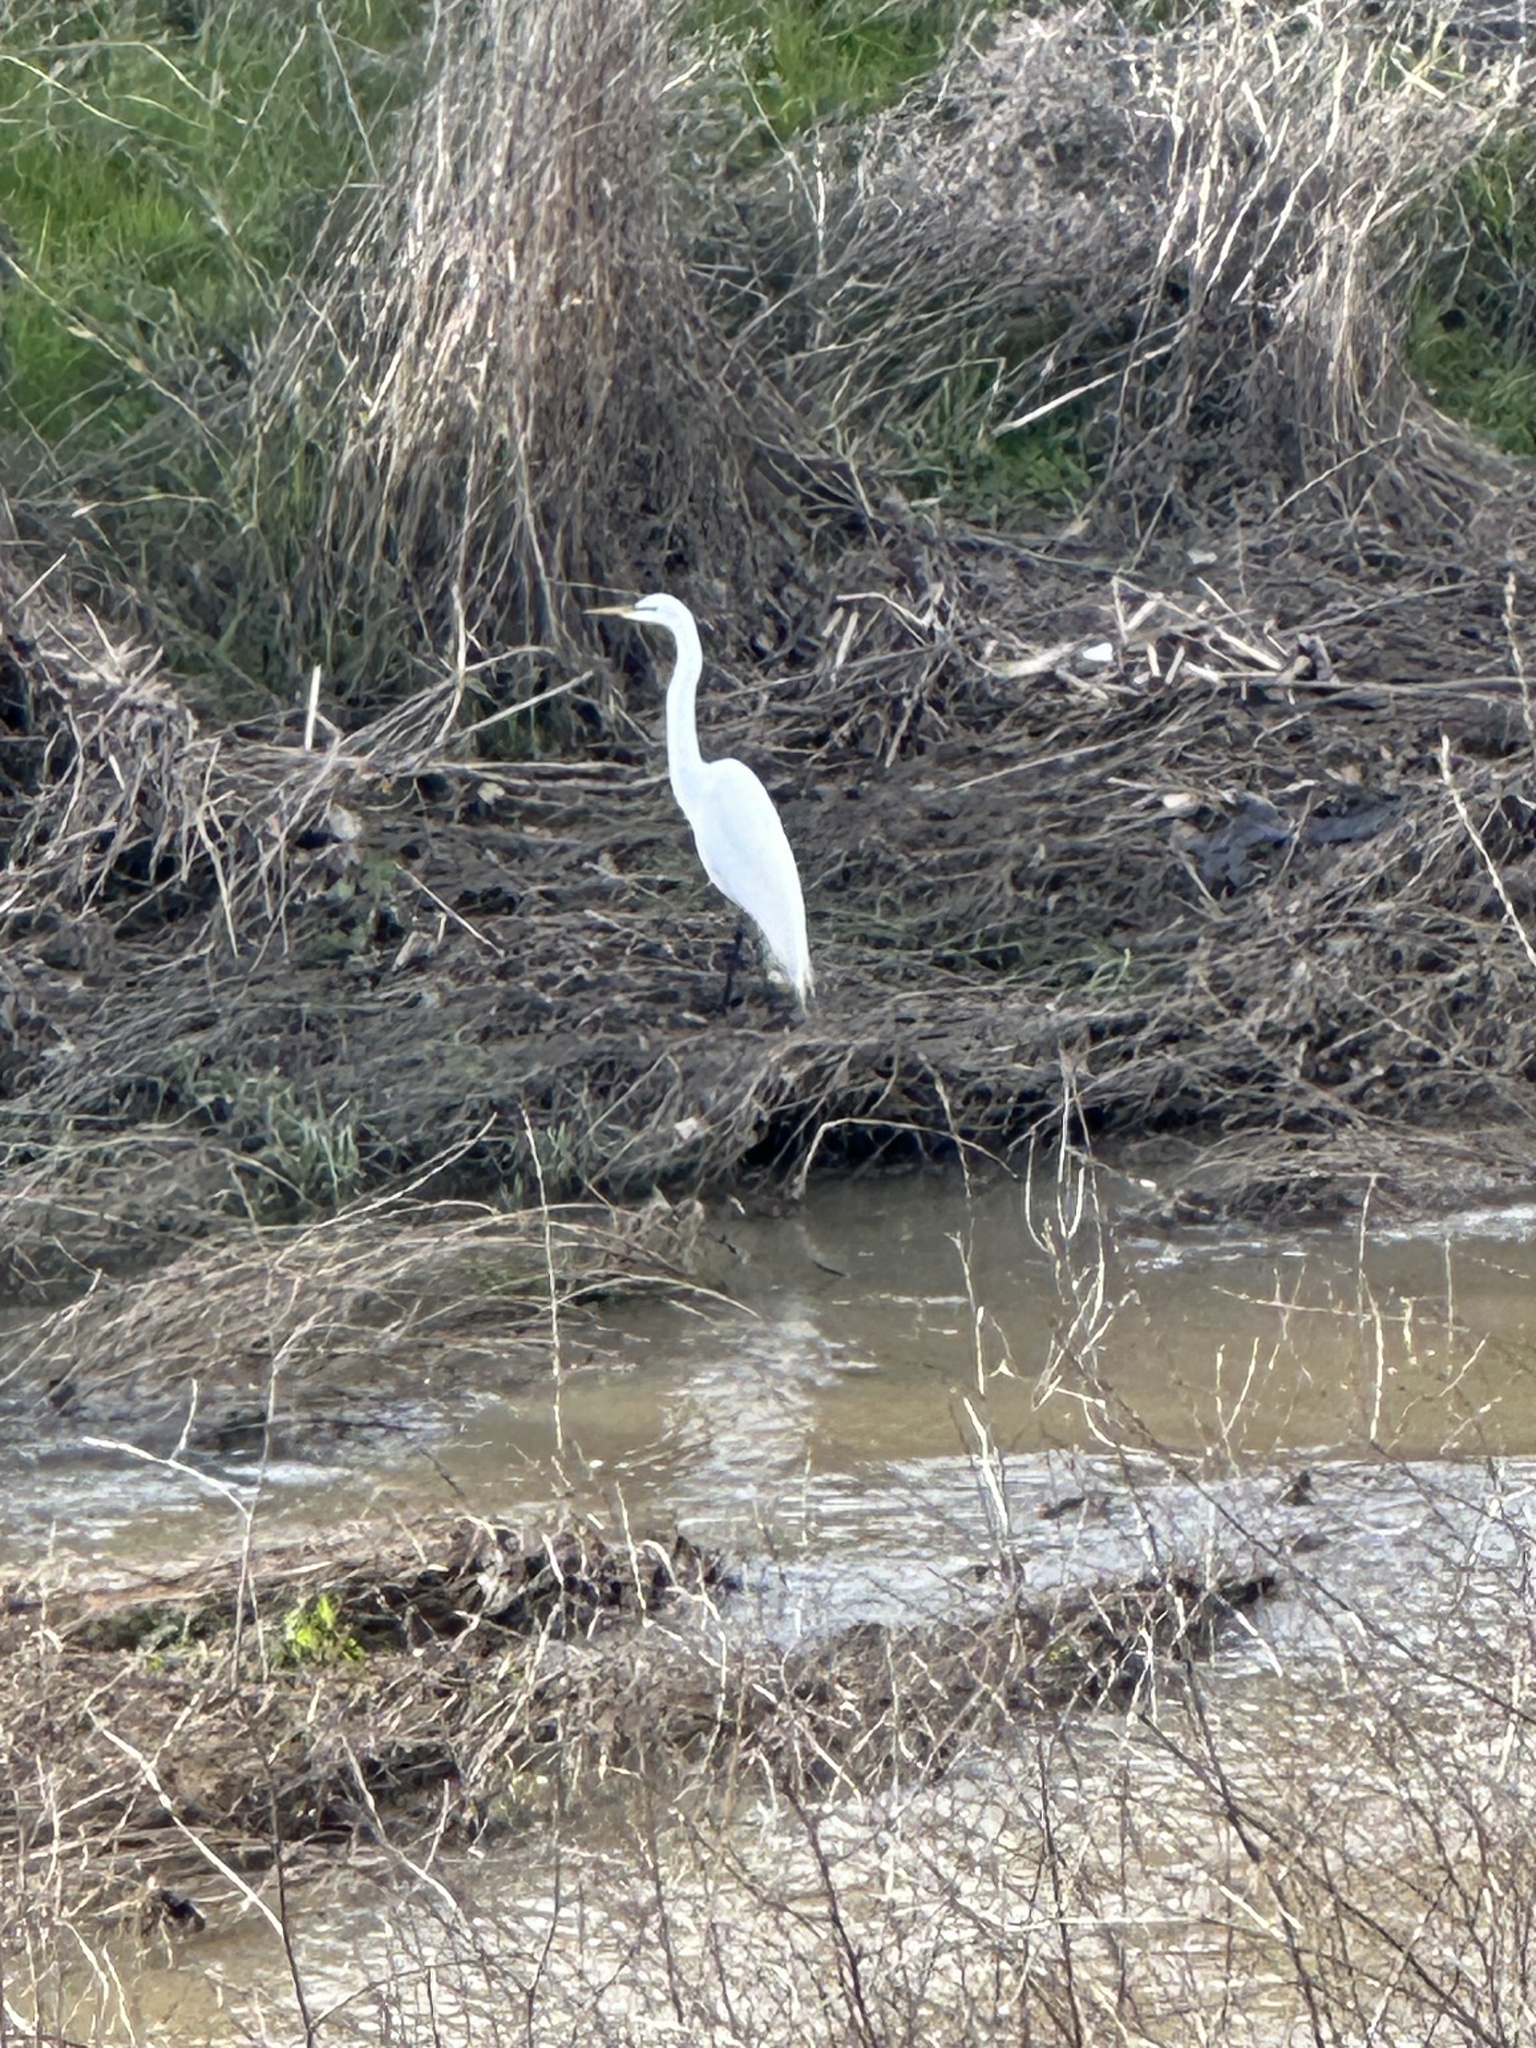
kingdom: Animalia
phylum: Chordata
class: Aves
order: Pelecaniformes
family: Ardeidae
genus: Ardea
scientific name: Ardea alba
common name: Great egret
